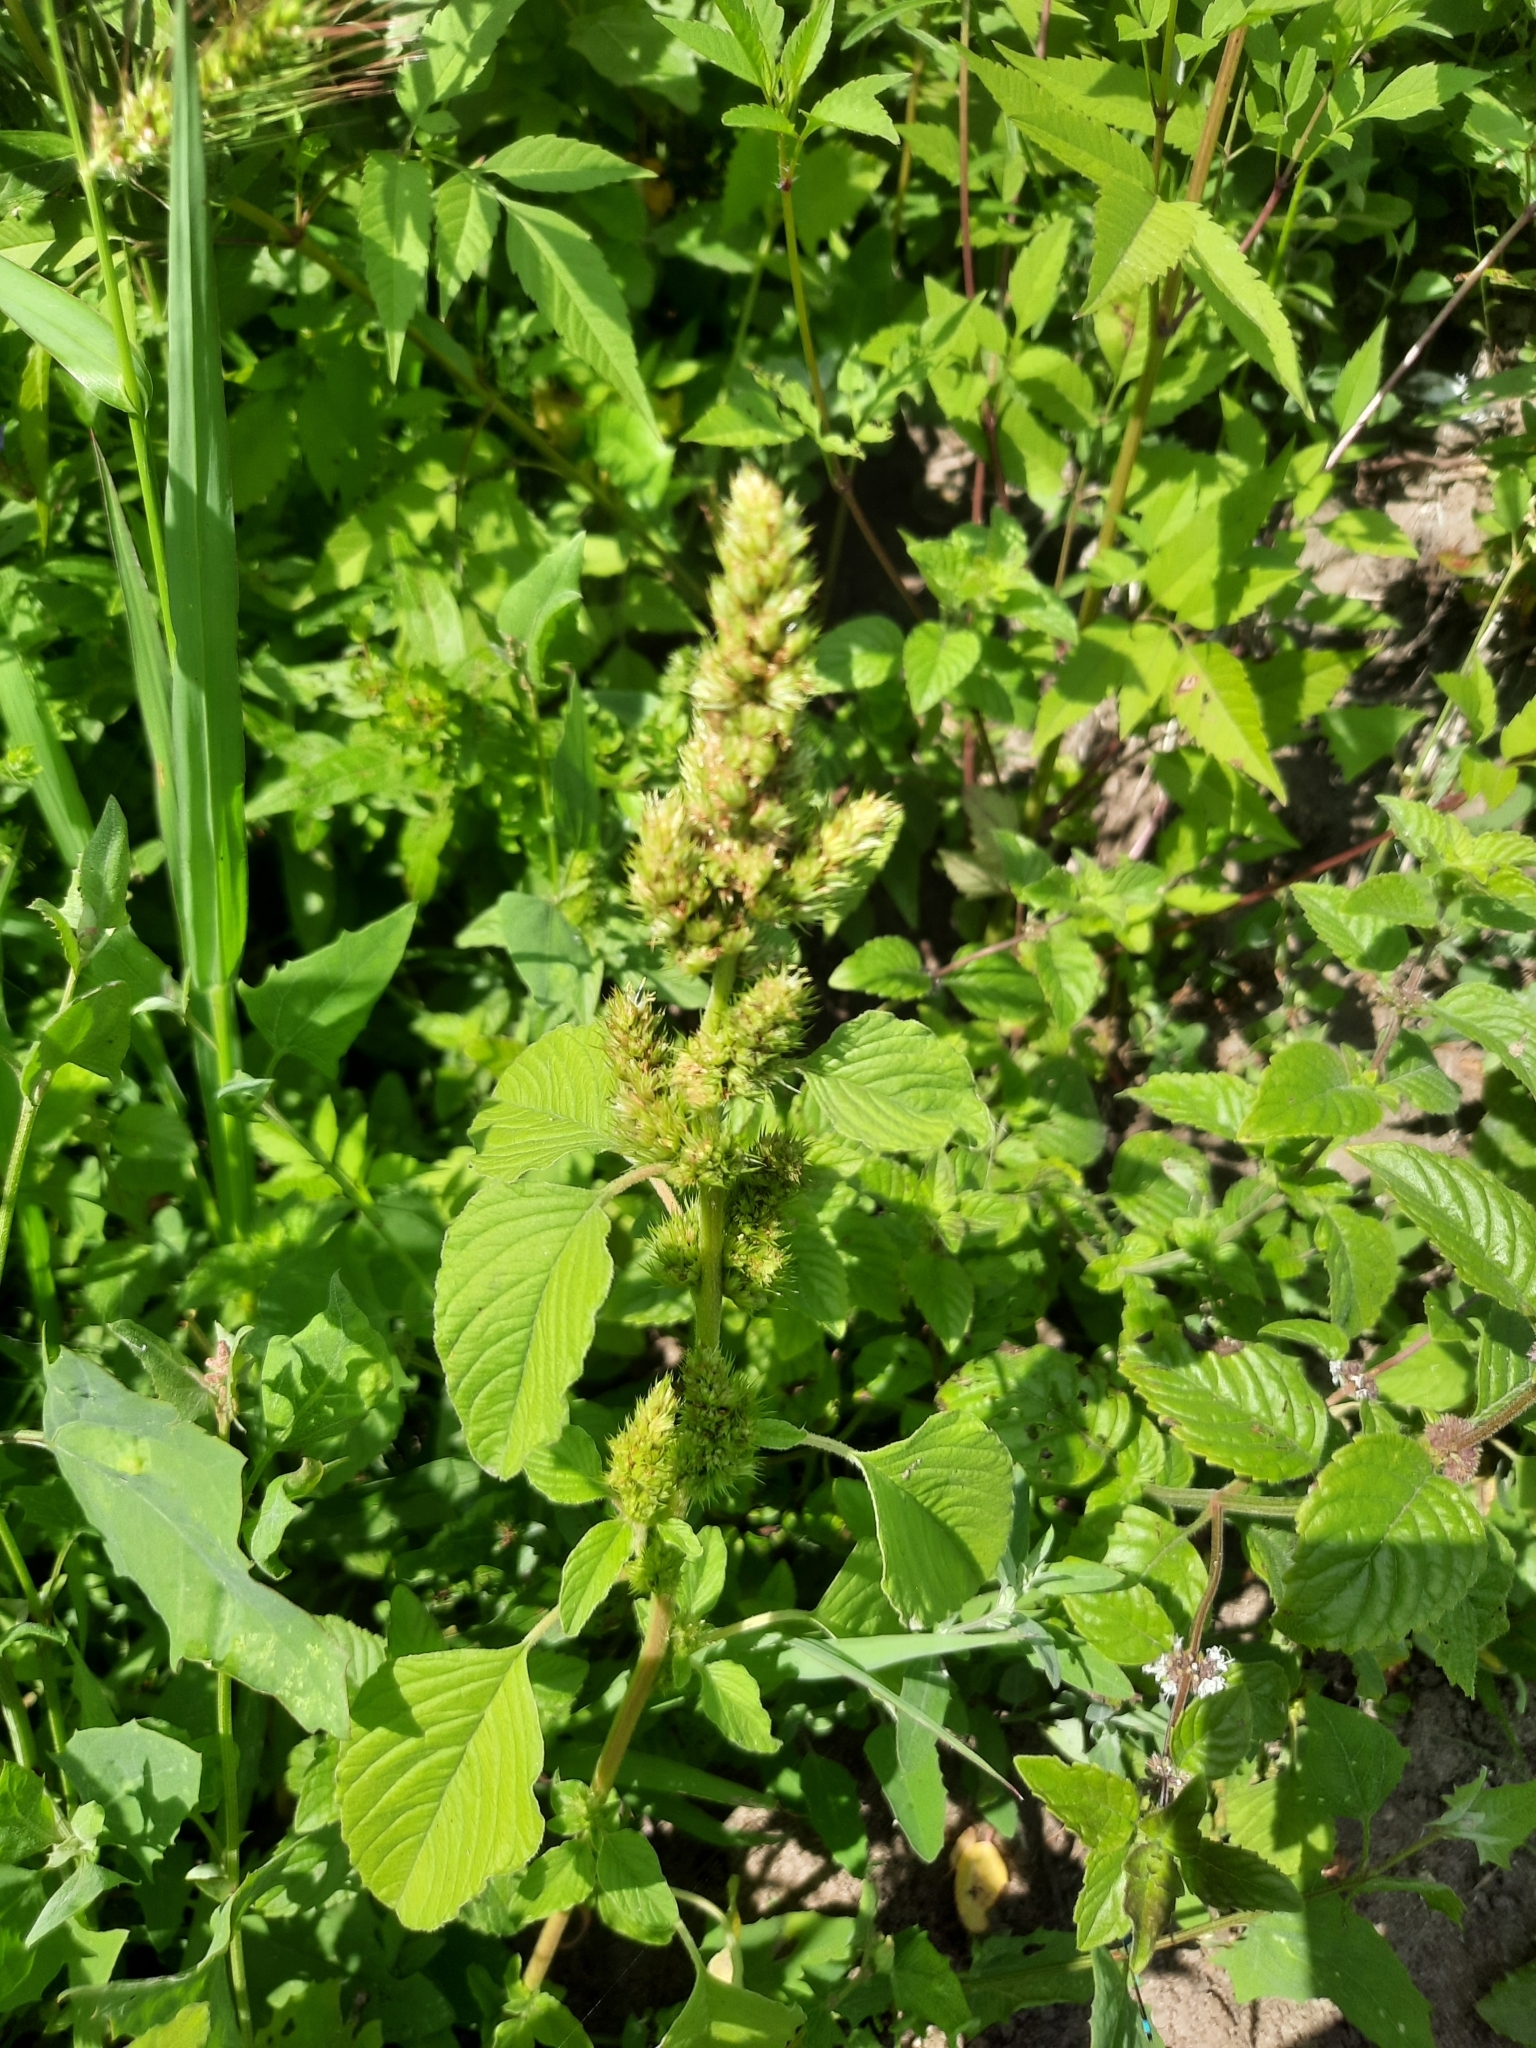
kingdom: Plantae
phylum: Tracheophyta
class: Magnoliopsida
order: Caryophyllales
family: Amaranthaceae
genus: Amaranthus
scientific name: Amaranthus retroflexus
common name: Redroot amaranth
